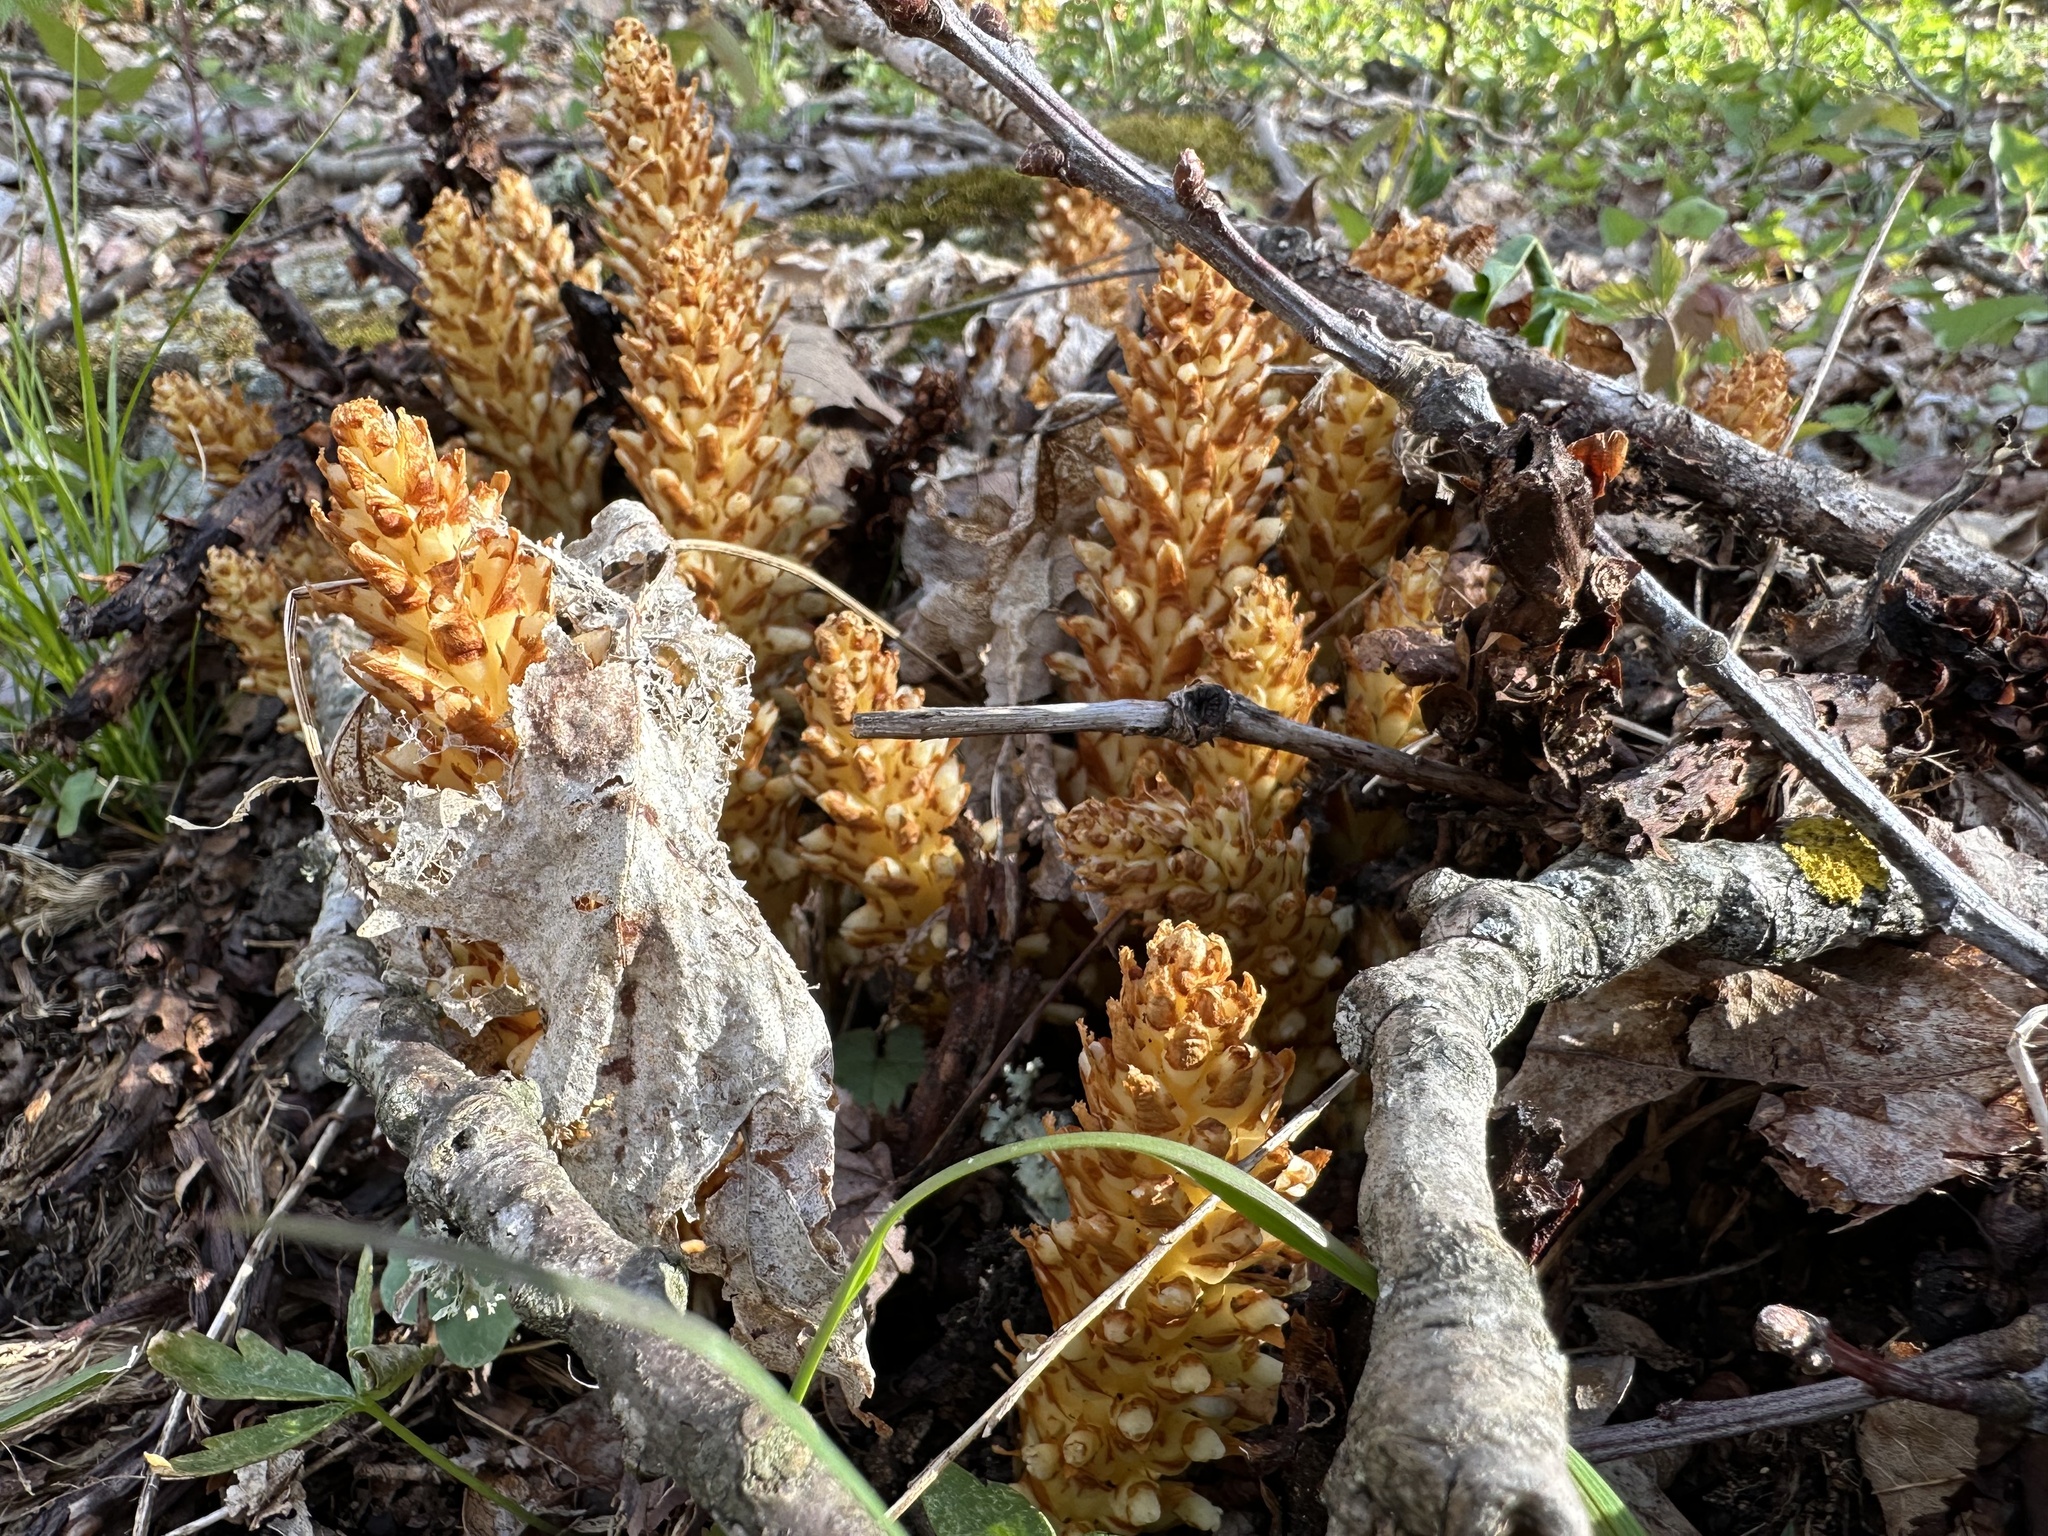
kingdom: Plantae
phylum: Tracheophyta
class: Magnoliopsida
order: Lamiales
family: Orobanchaceae
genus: Conopholis
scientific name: Conopholis americana
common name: American cancer-root
